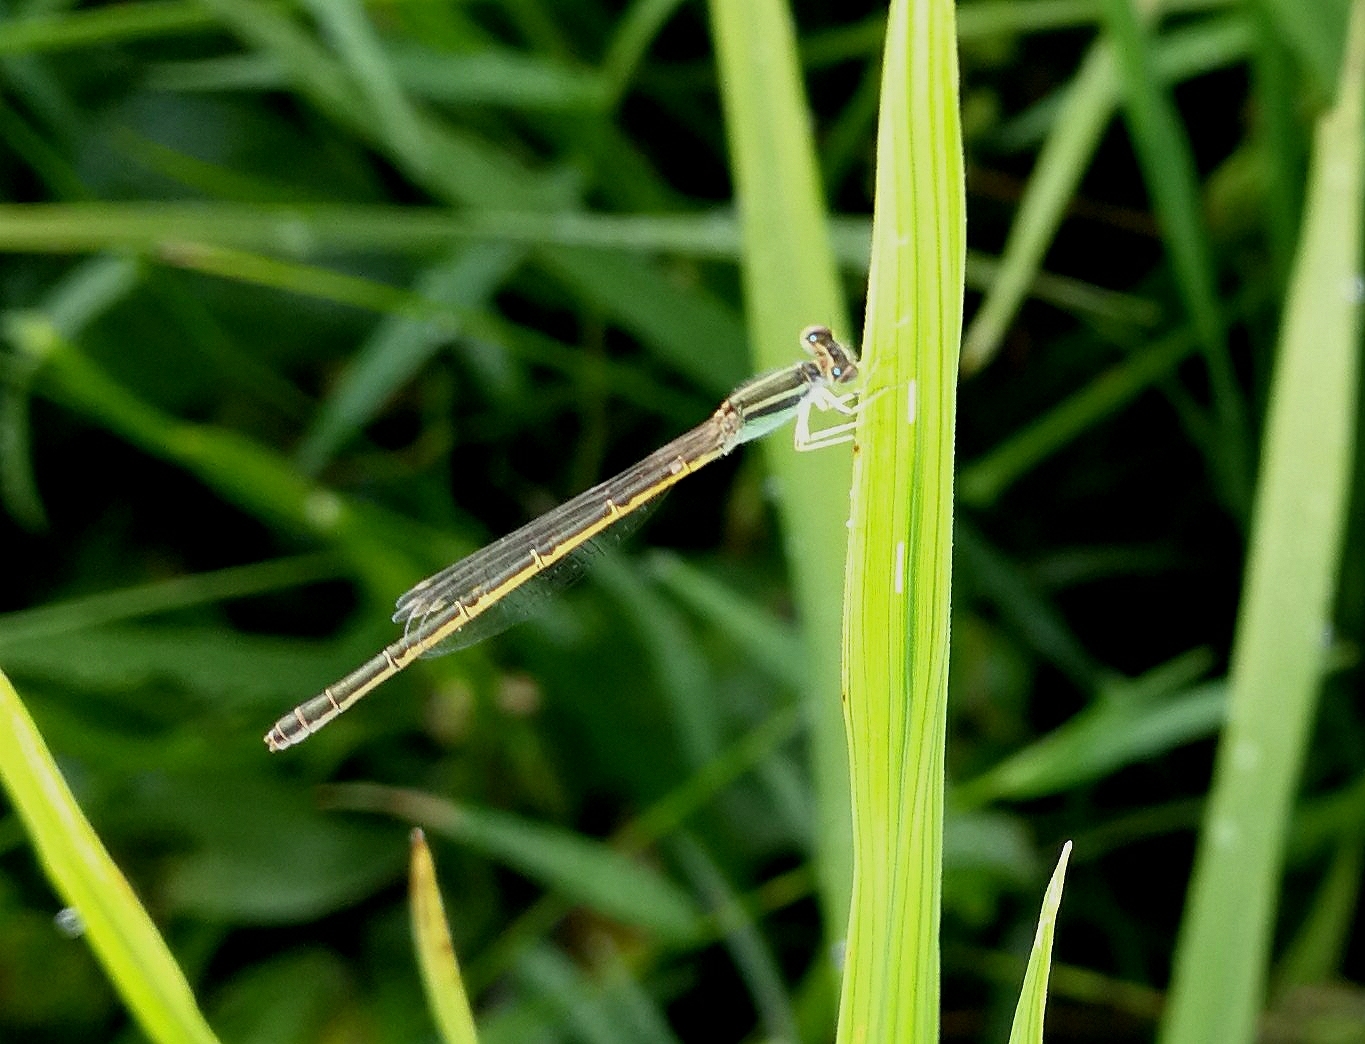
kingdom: Animalia
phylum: Arthropoda
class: Insecta
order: Odonata
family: Coenagrionidae
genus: Ischnura
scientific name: Ischnura rubilio
